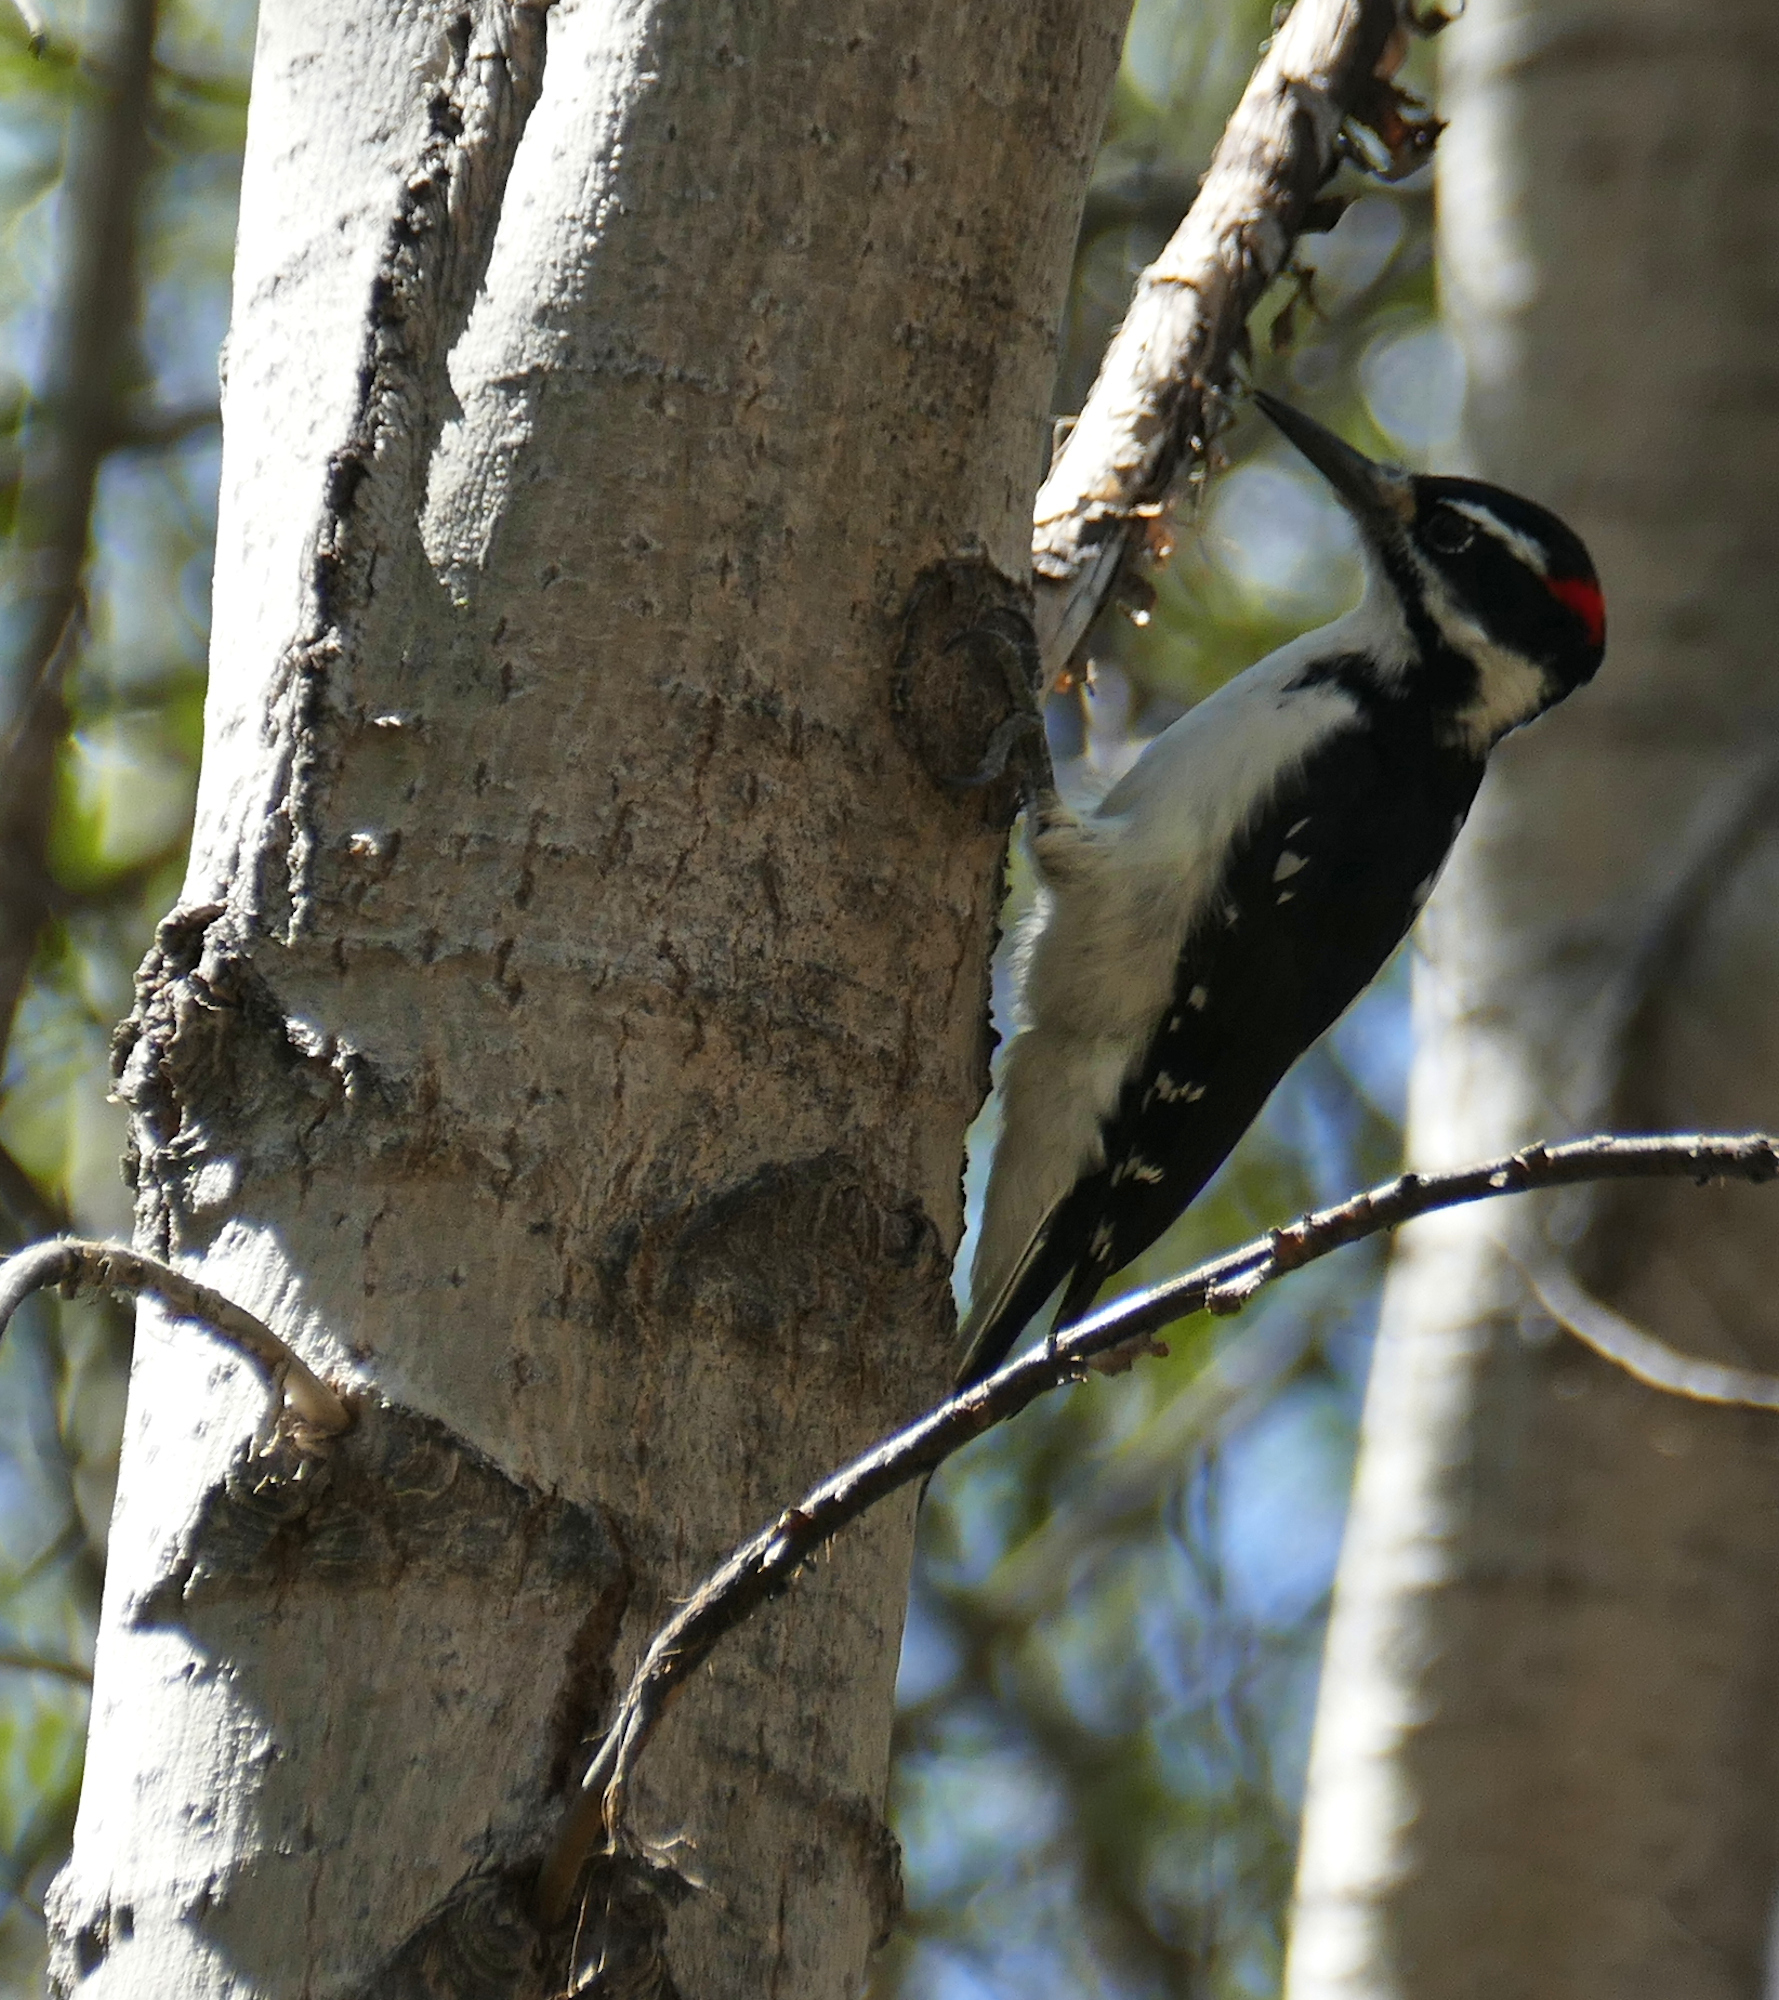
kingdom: Animalia
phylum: Chordata
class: Aves
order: Piciformes
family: Picidae
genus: Leuconotopicus
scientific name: Leuconotopicus villosus
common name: Hairy woodpecker
